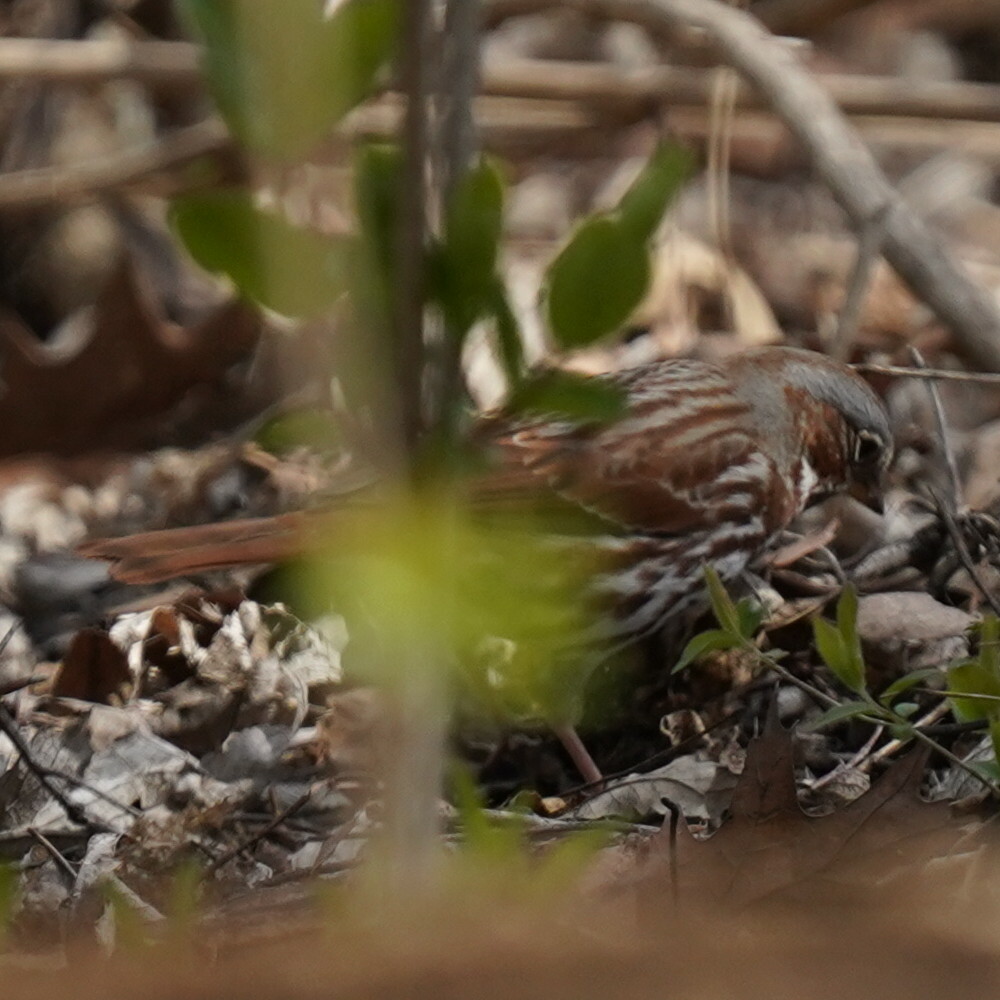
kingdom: Animalia
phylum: Chordata
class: Aves
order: Passeriformes
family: Passerellidae
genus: Passerella
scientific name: Passerella iliaca
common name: Fox sparrow
